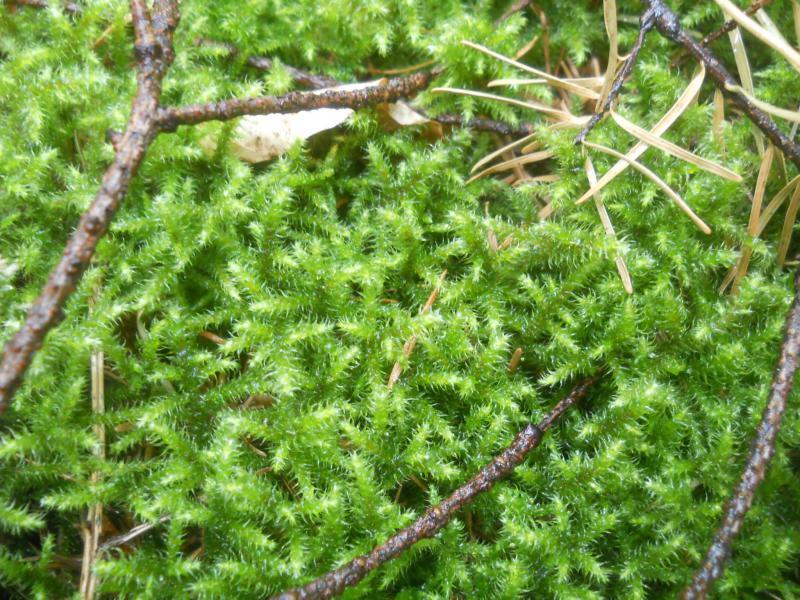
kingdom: Plantae
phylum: Bryophyta
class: Bryopsida
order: Hypnales
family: Hylocomiaceae
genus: Rhytidiadelphus
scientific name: Rhytidiadelphus loreus
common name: Lanky moss
